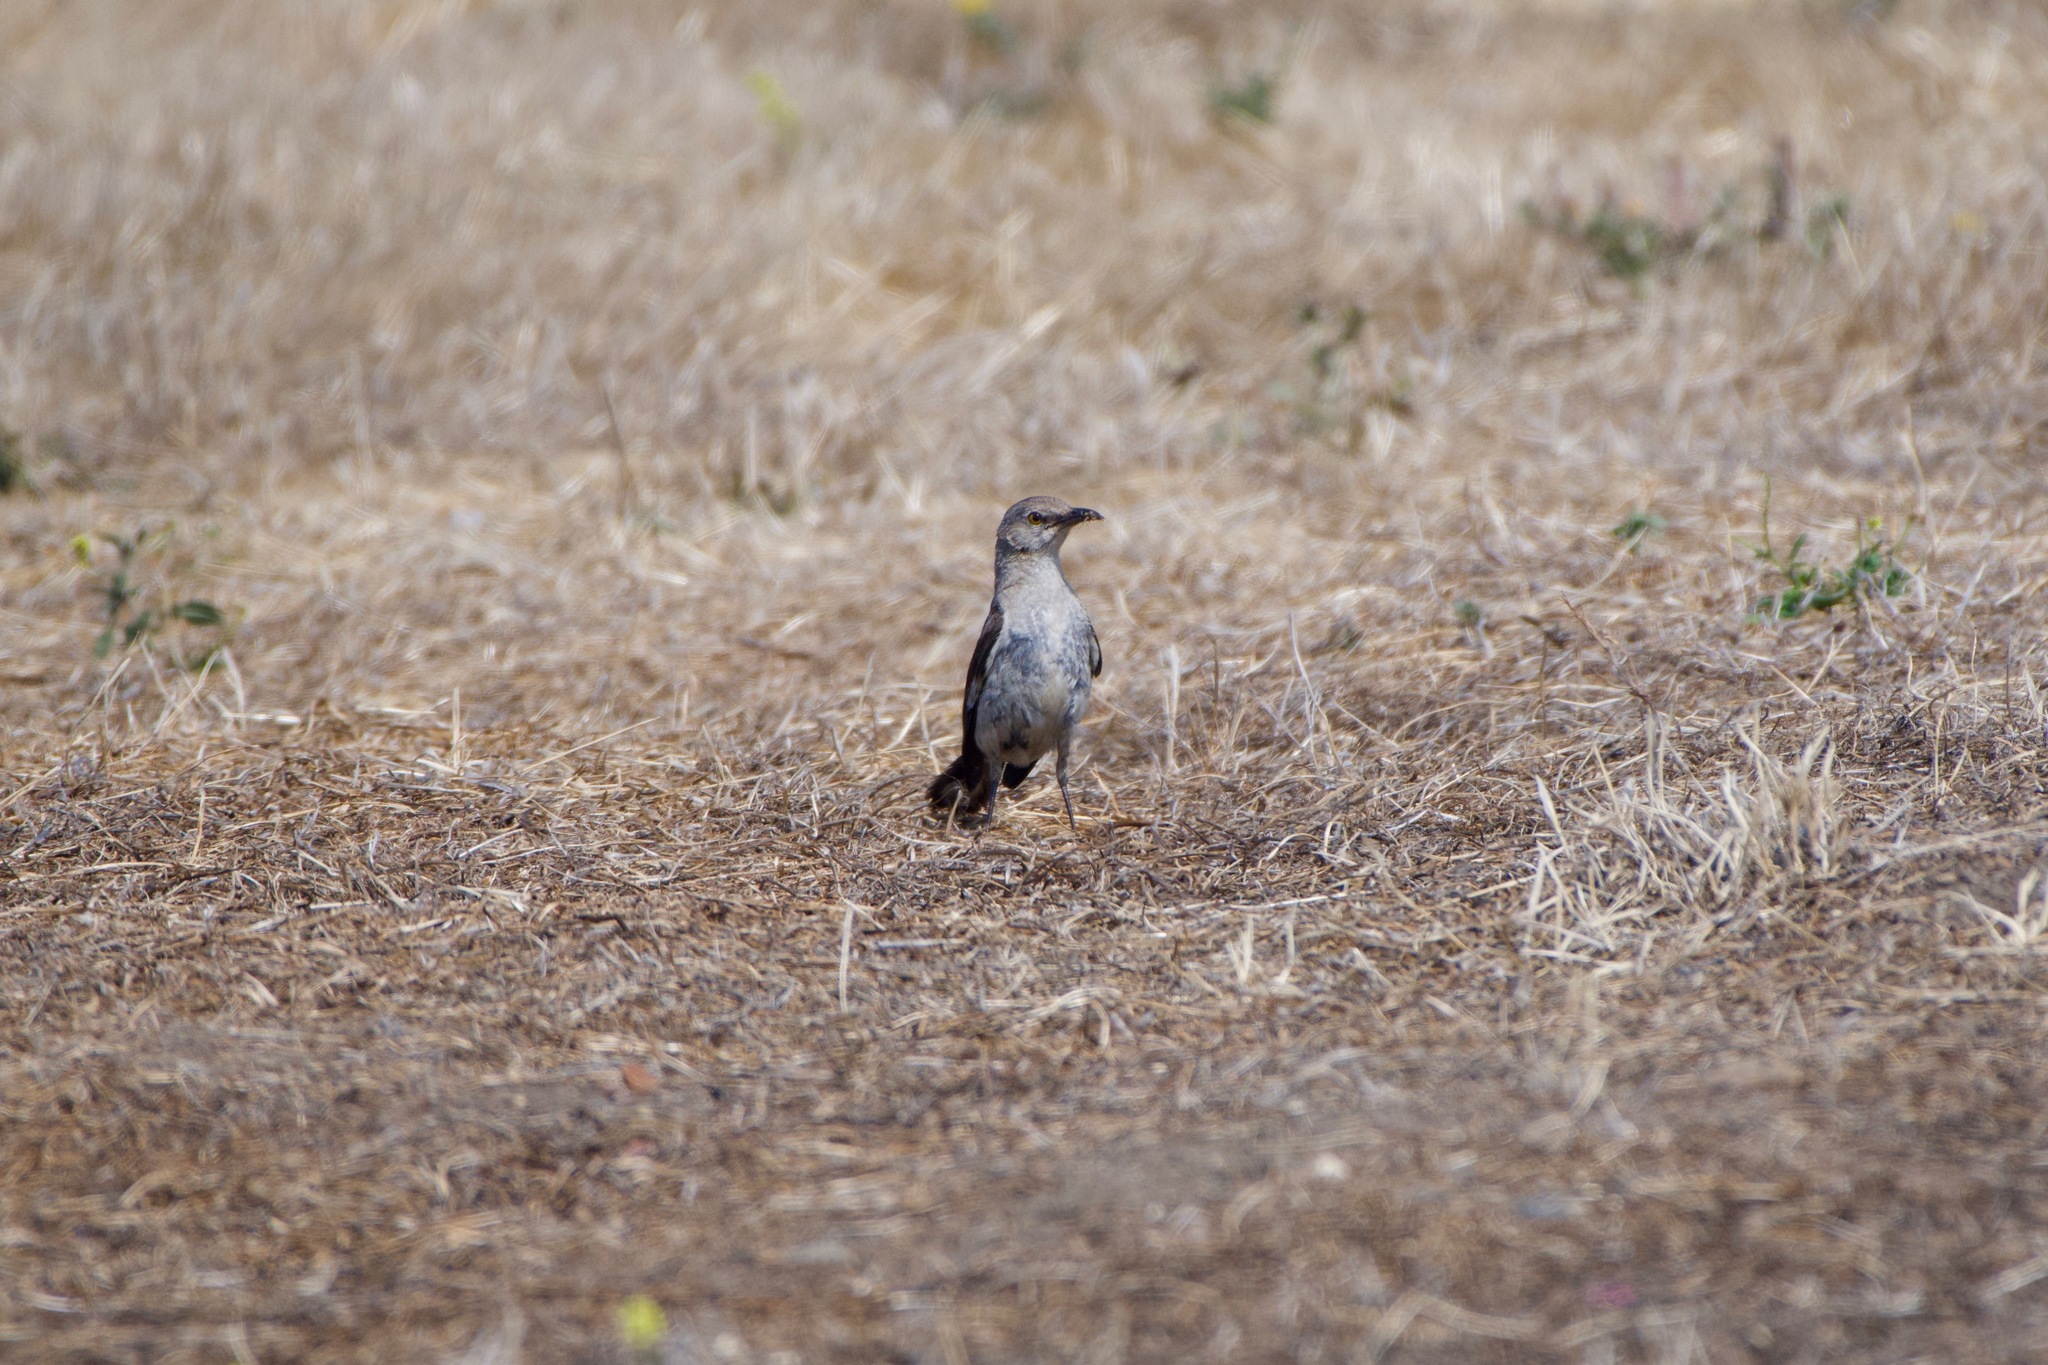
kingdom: Animalia
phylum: Chordata
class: Aves
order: Passeriformes
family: Mimidae
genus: Mimus
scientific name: Mimus polyglottos
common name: Northern mockingbird
